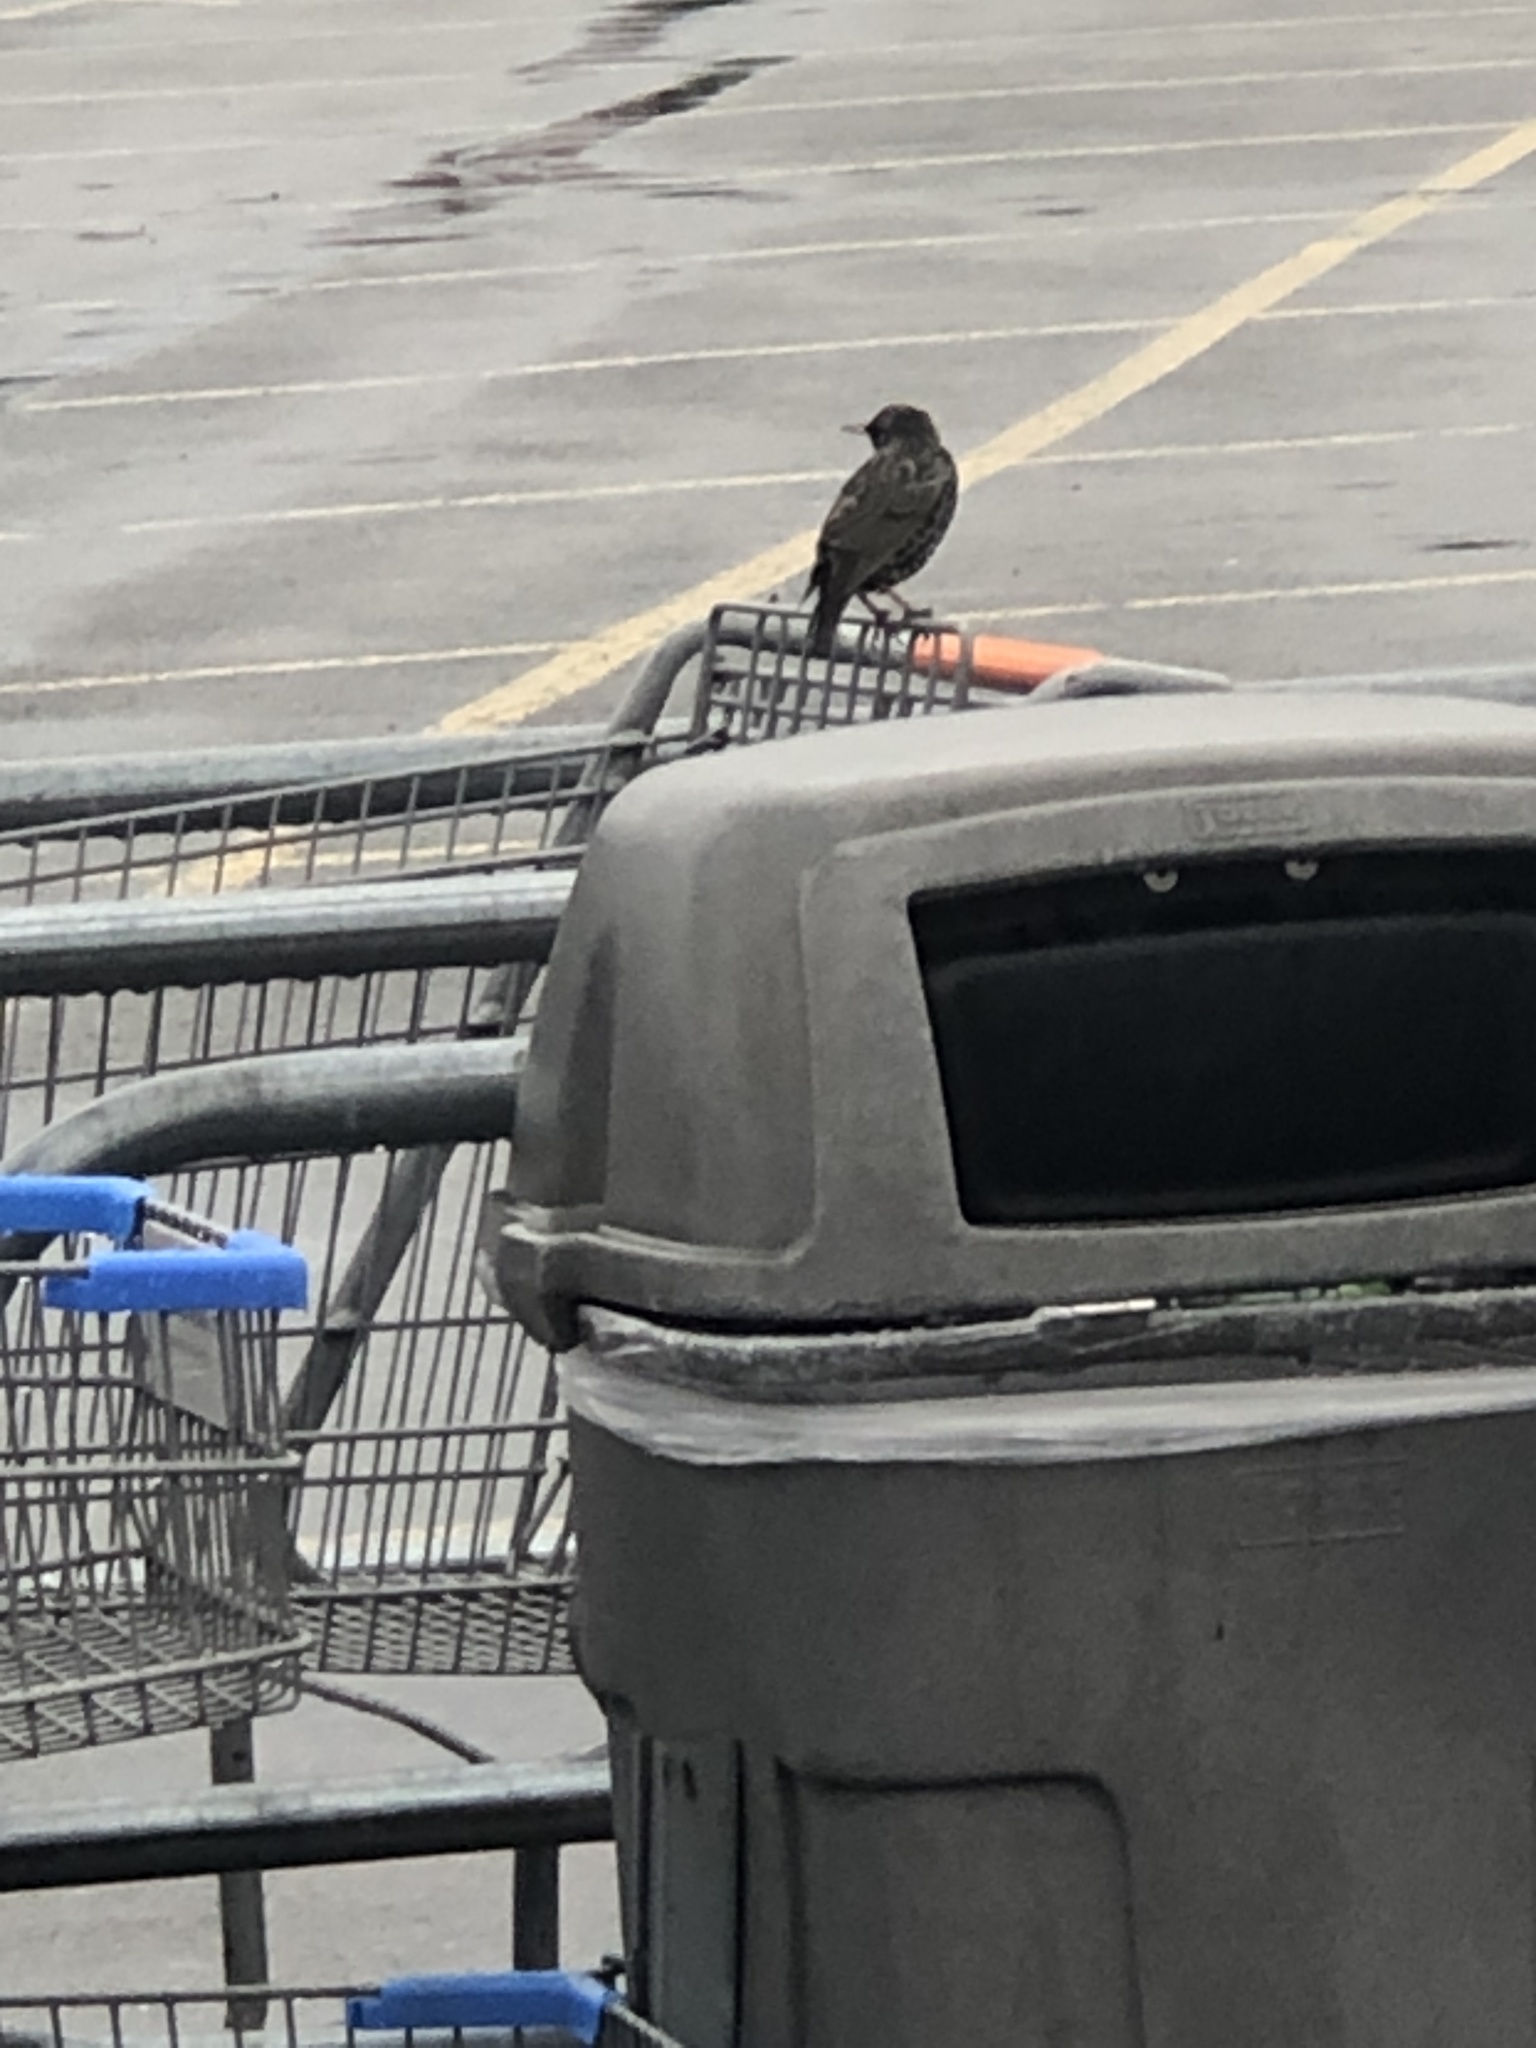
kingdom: Animalia
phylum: Chordata
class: Aves
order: Passeriformes
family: Sturnidae
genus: Sturnus
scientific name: Sturnus vulgaris
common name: Common starling
